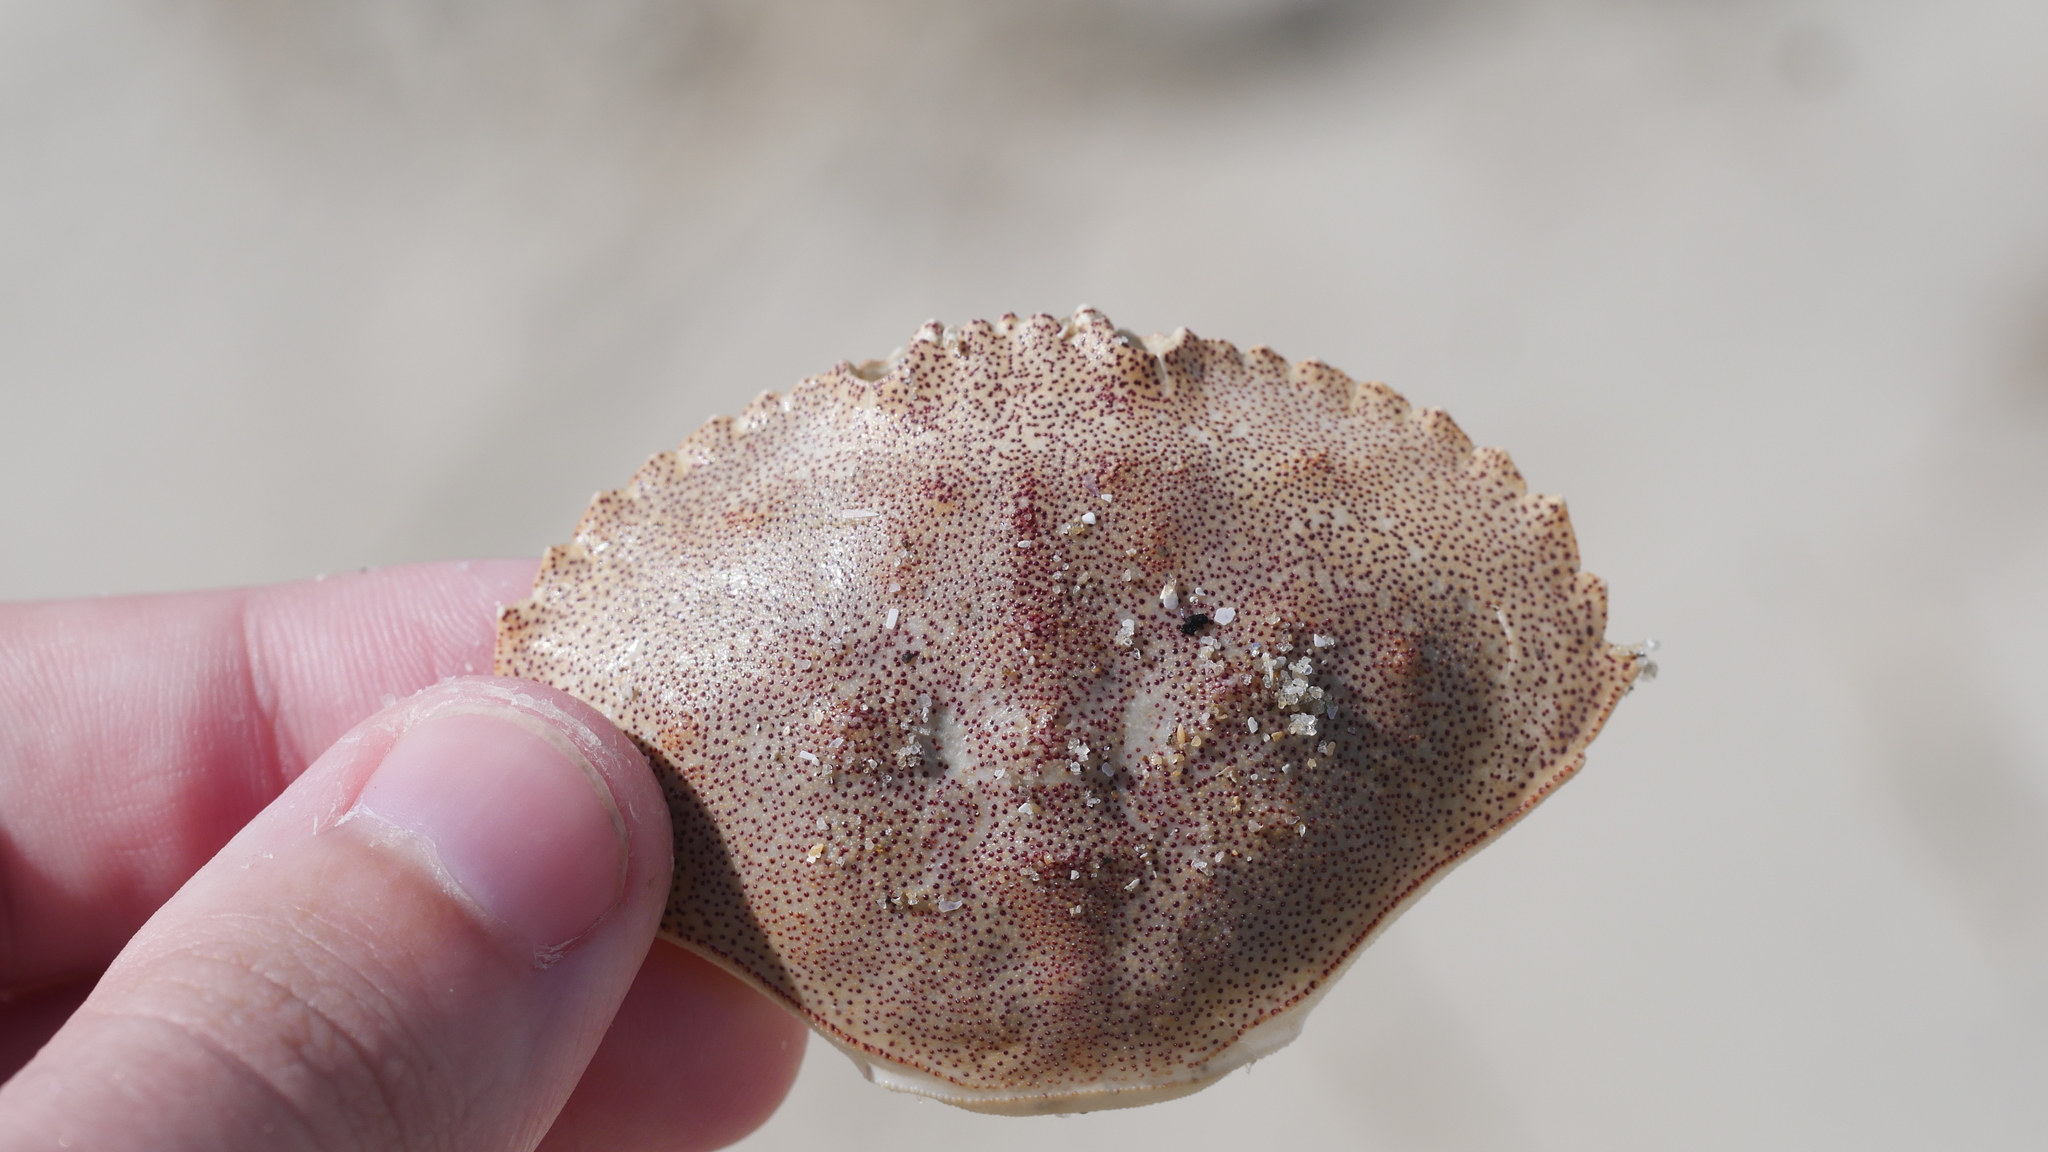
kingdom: Animalia
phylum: Arthropoda
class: Malacostraca
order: Decapoda
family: Cancridae
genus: Cancer
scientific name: Cancer irroratus
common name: Atlantic rock crab
